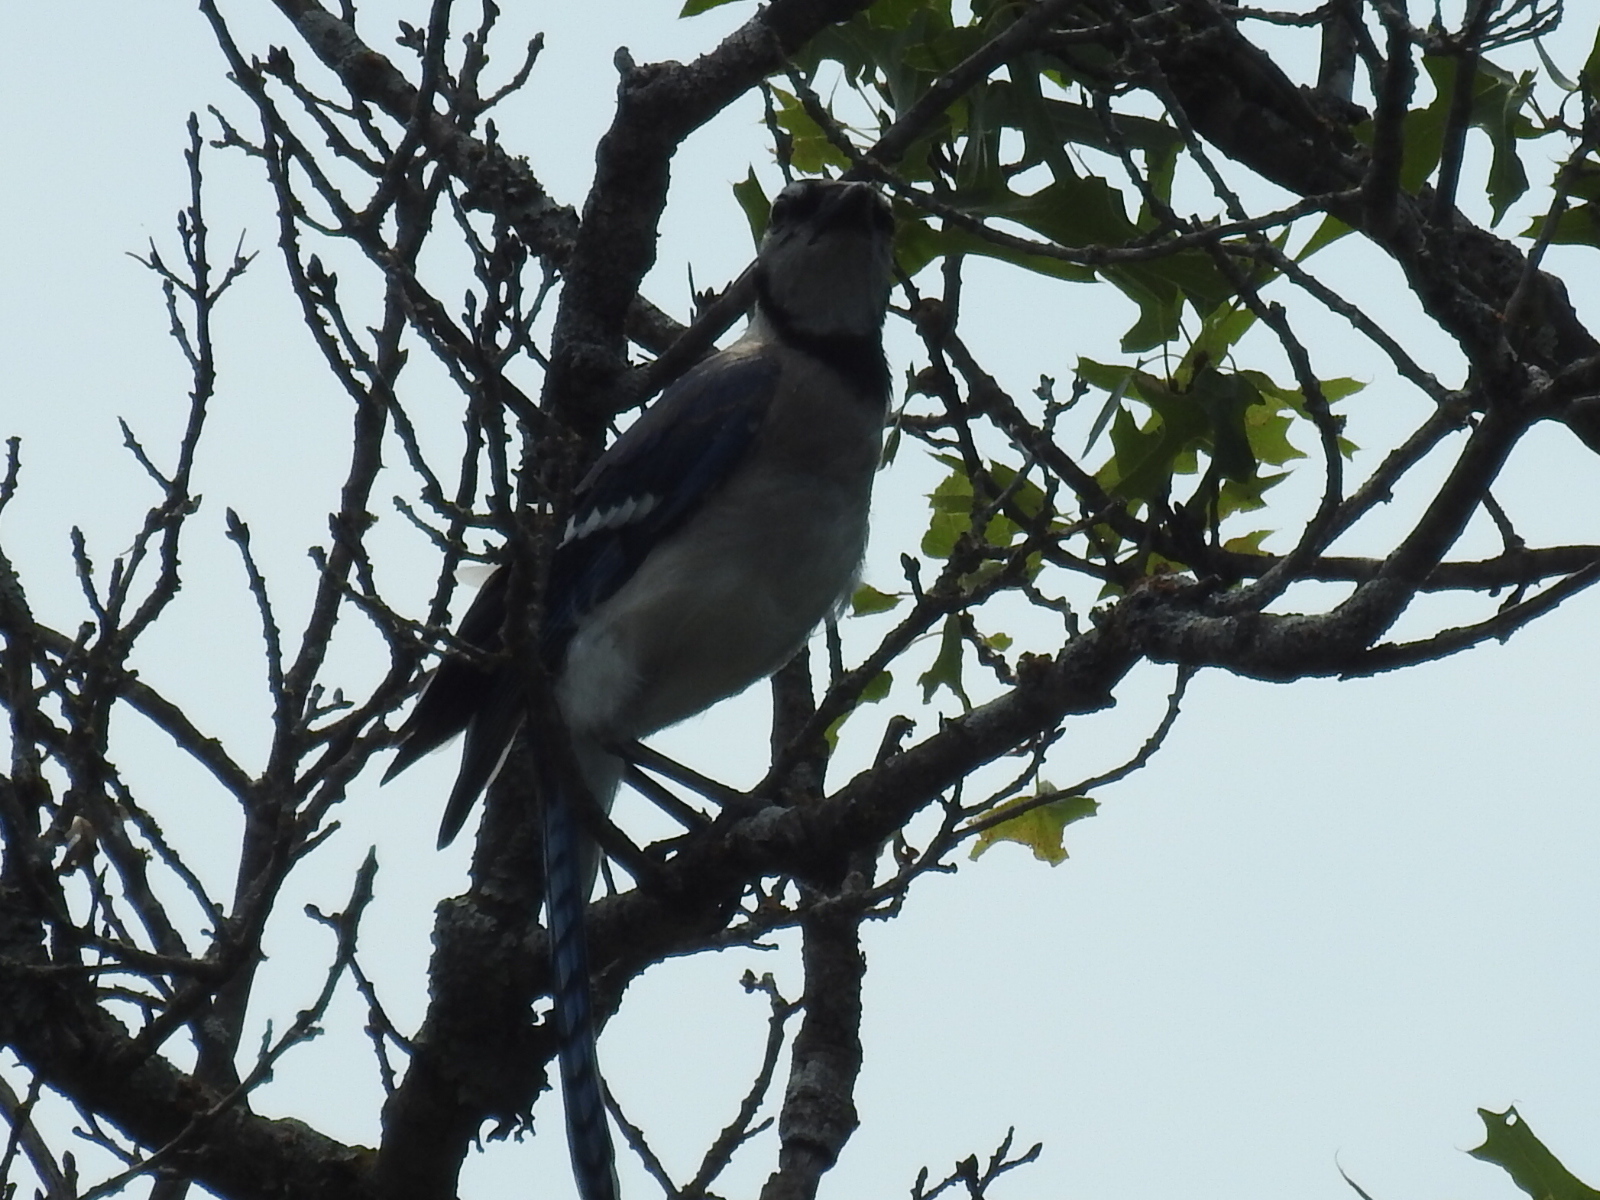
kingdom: Animalia
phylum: Chordata
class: Aves
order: Passeriformes
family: Corvidae
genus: Cyanocitta
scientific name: Cyanocitta cristata
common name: Blue jay
